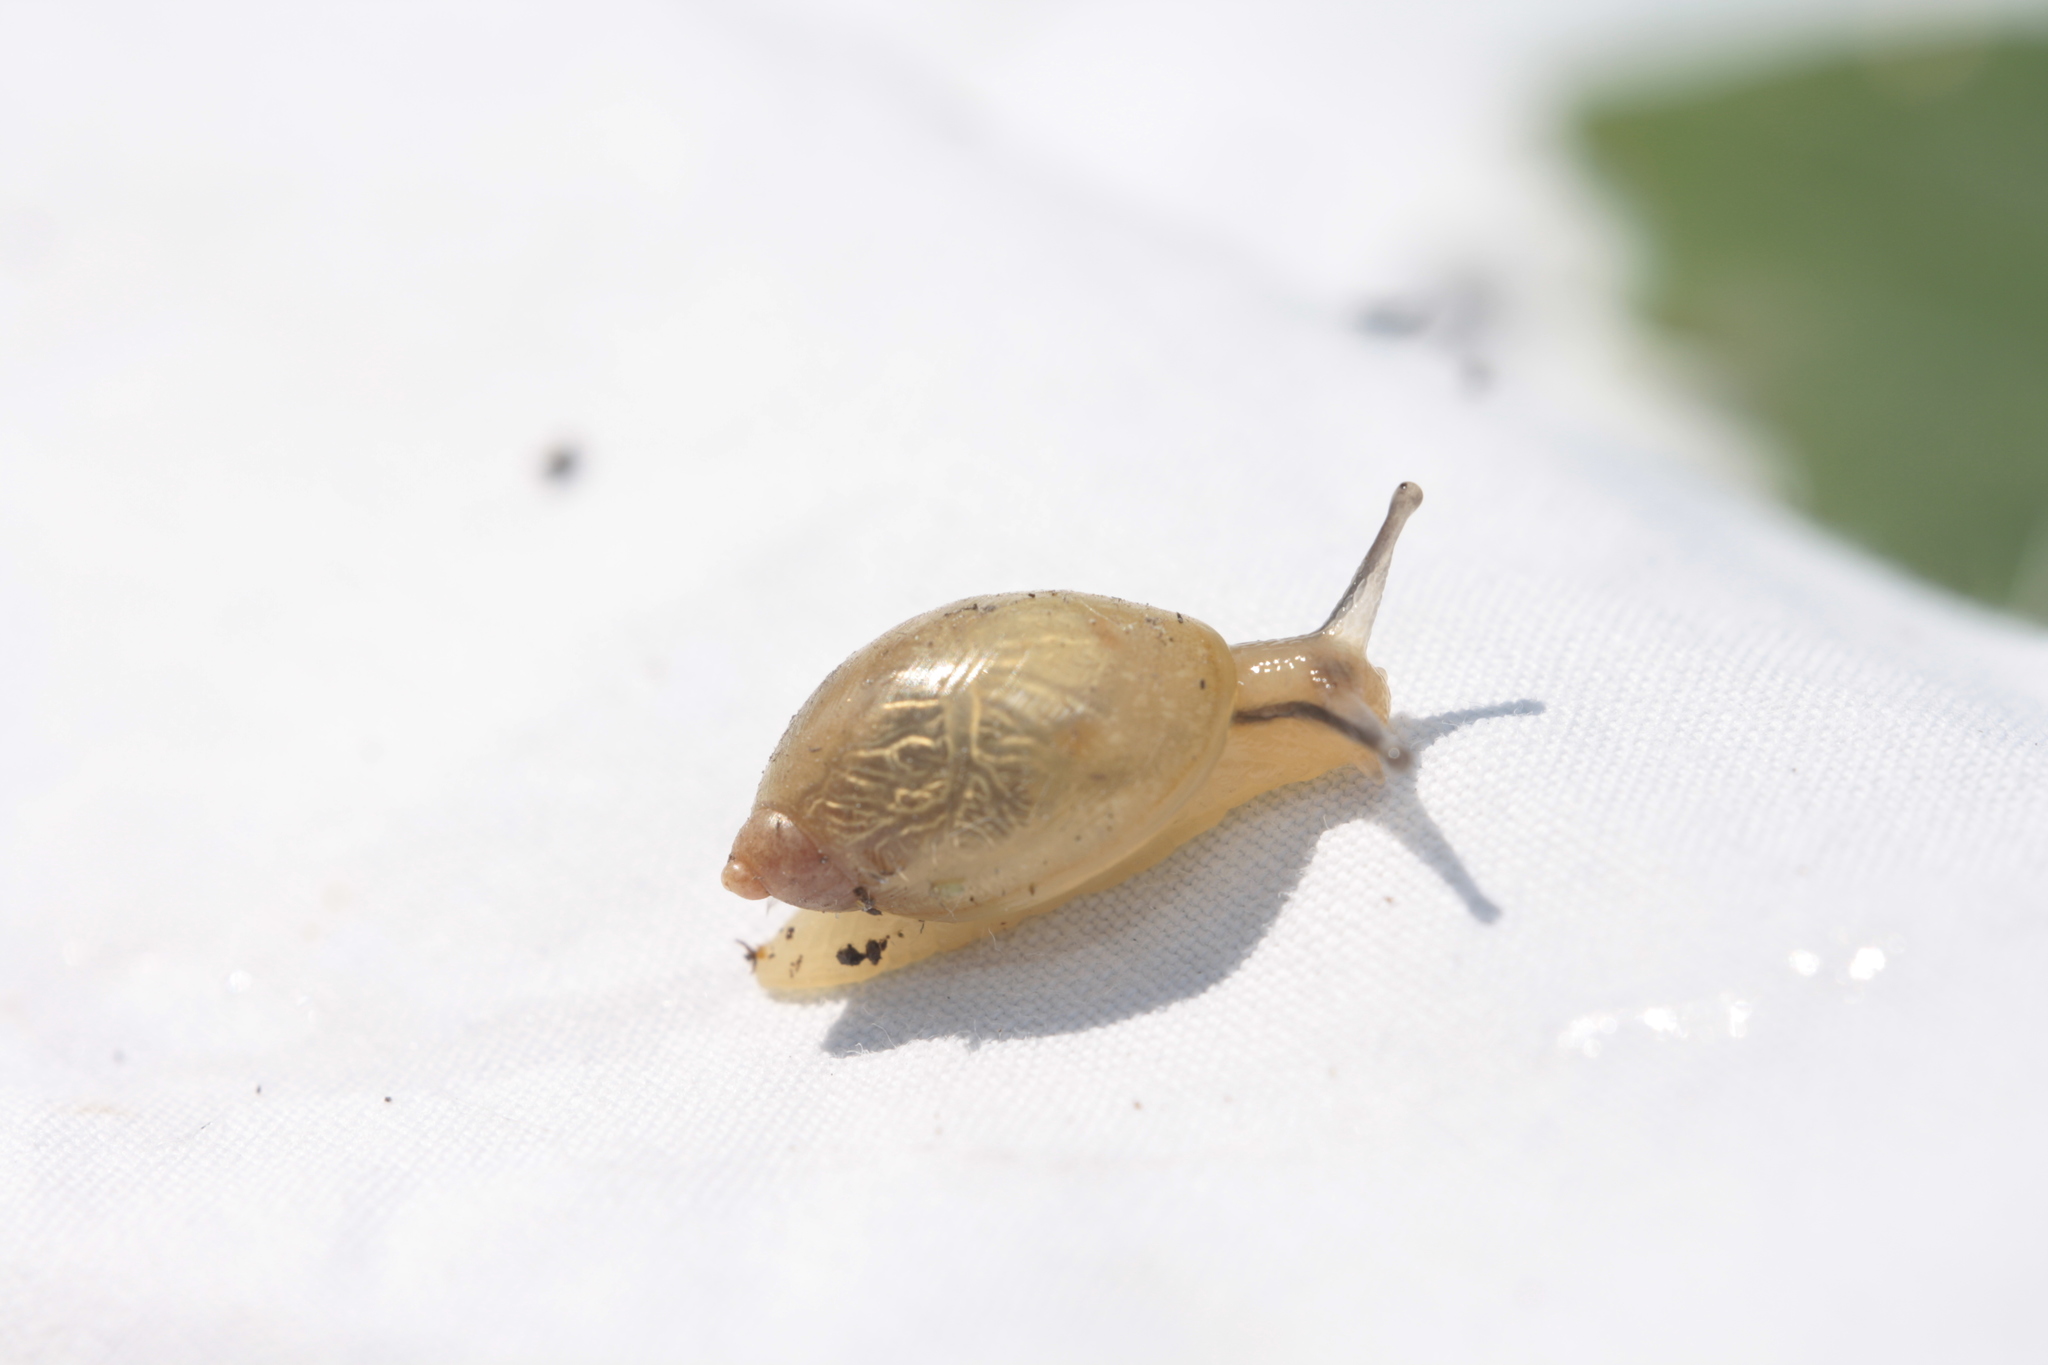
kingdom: Animalia
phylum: Mollusca
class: Gastropoda
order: Stylommatophora
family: Succineidae
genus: Succinea
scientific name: Succinea putris
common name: European ambersnail
